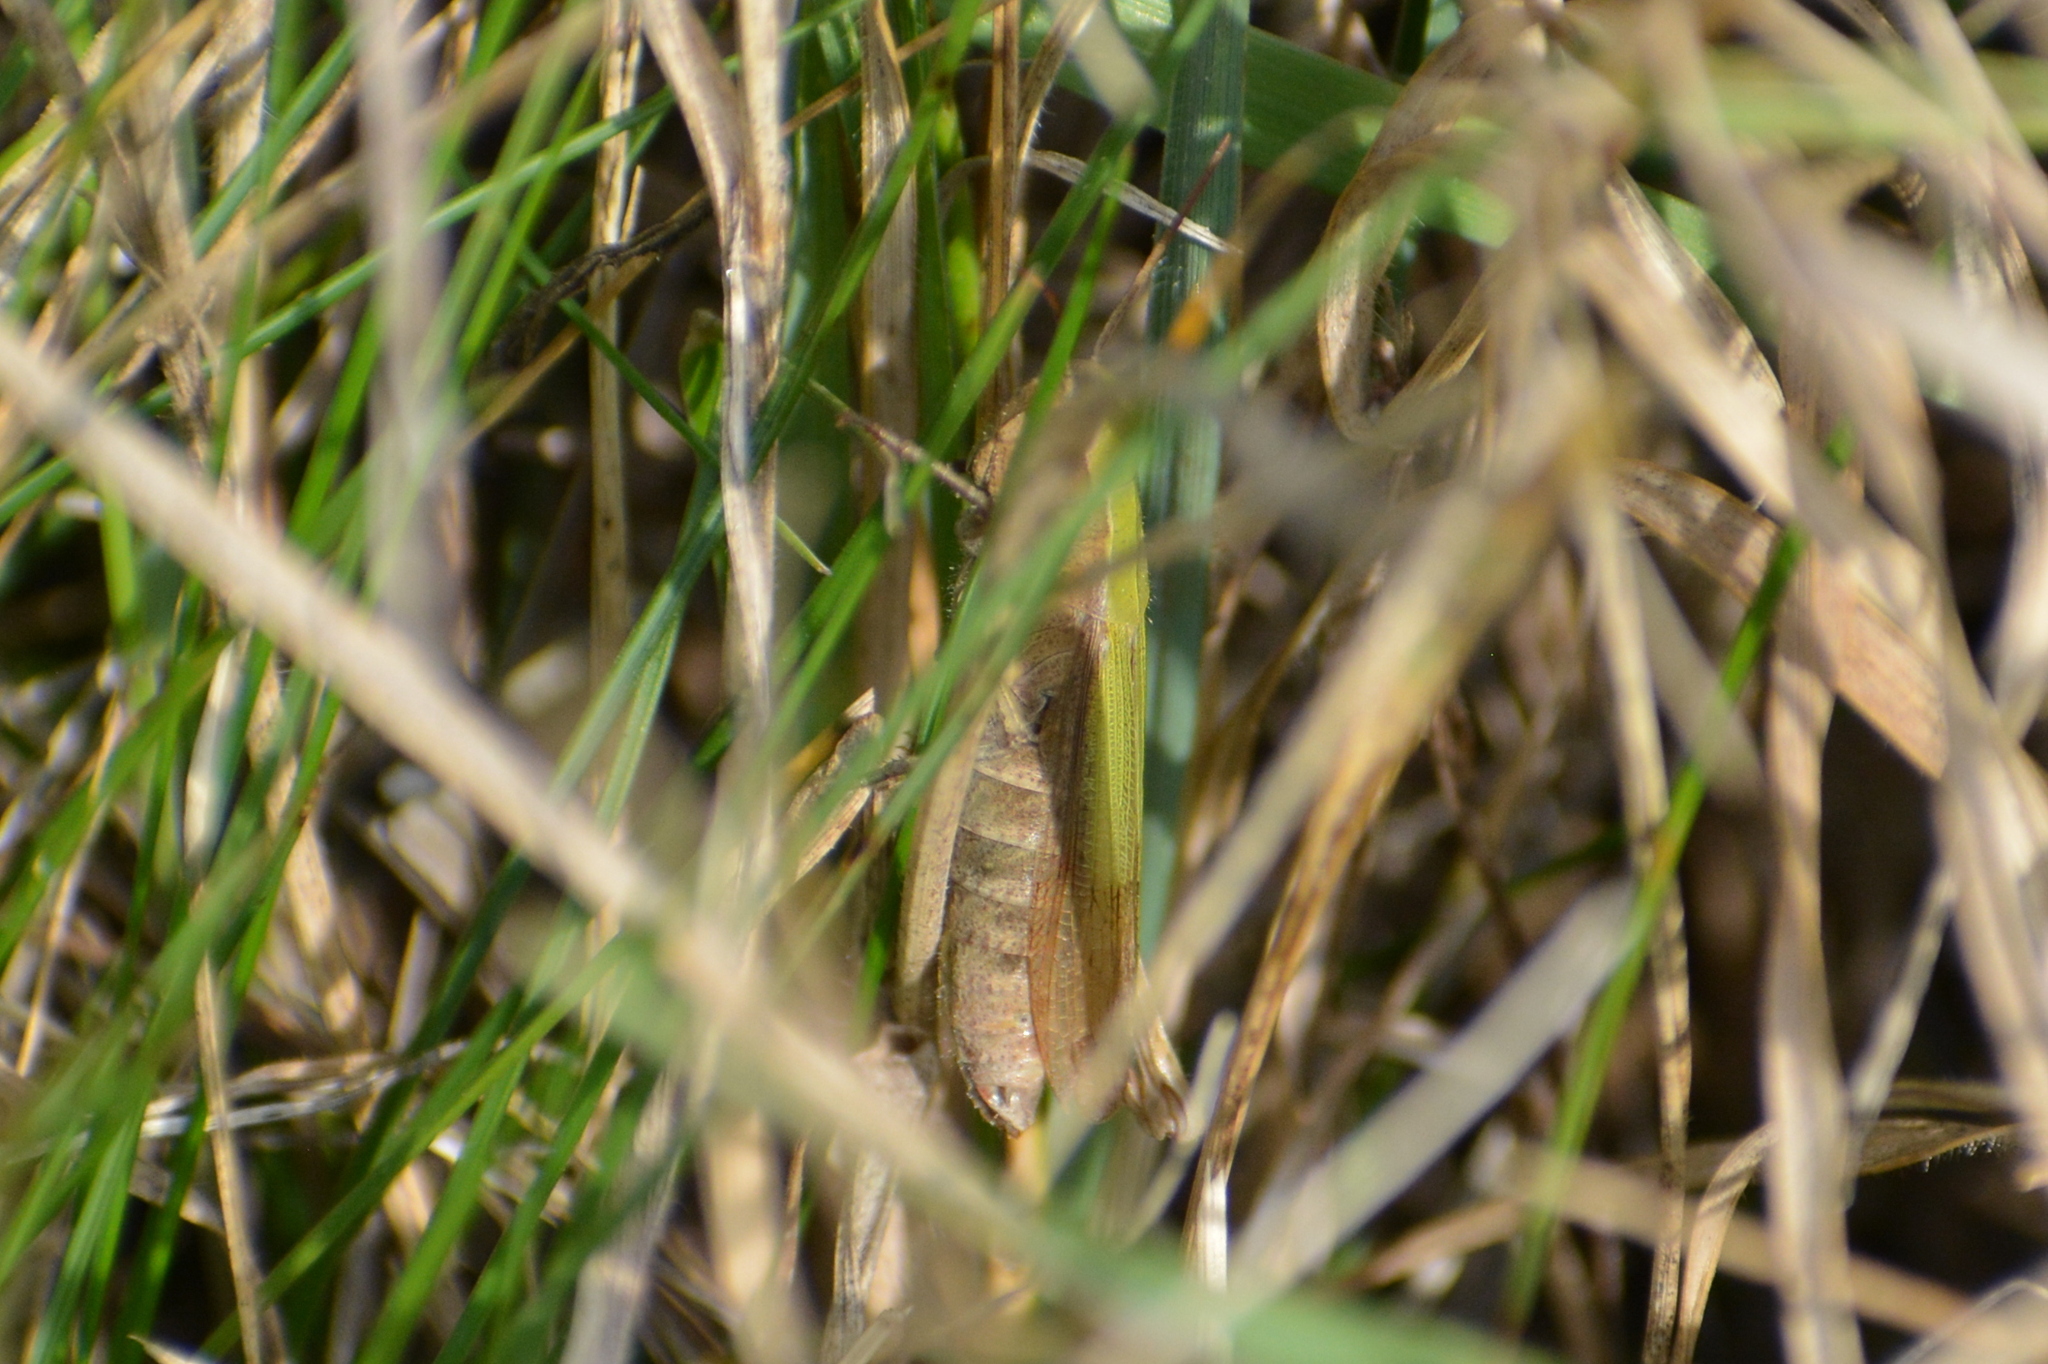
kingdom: Animalia
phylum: Arthropoda
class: Insecta
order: Orthoptera
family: Acrididae
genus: Chorthippus
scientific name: Chorthippus dorsatus
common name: Steppe grasshopper
